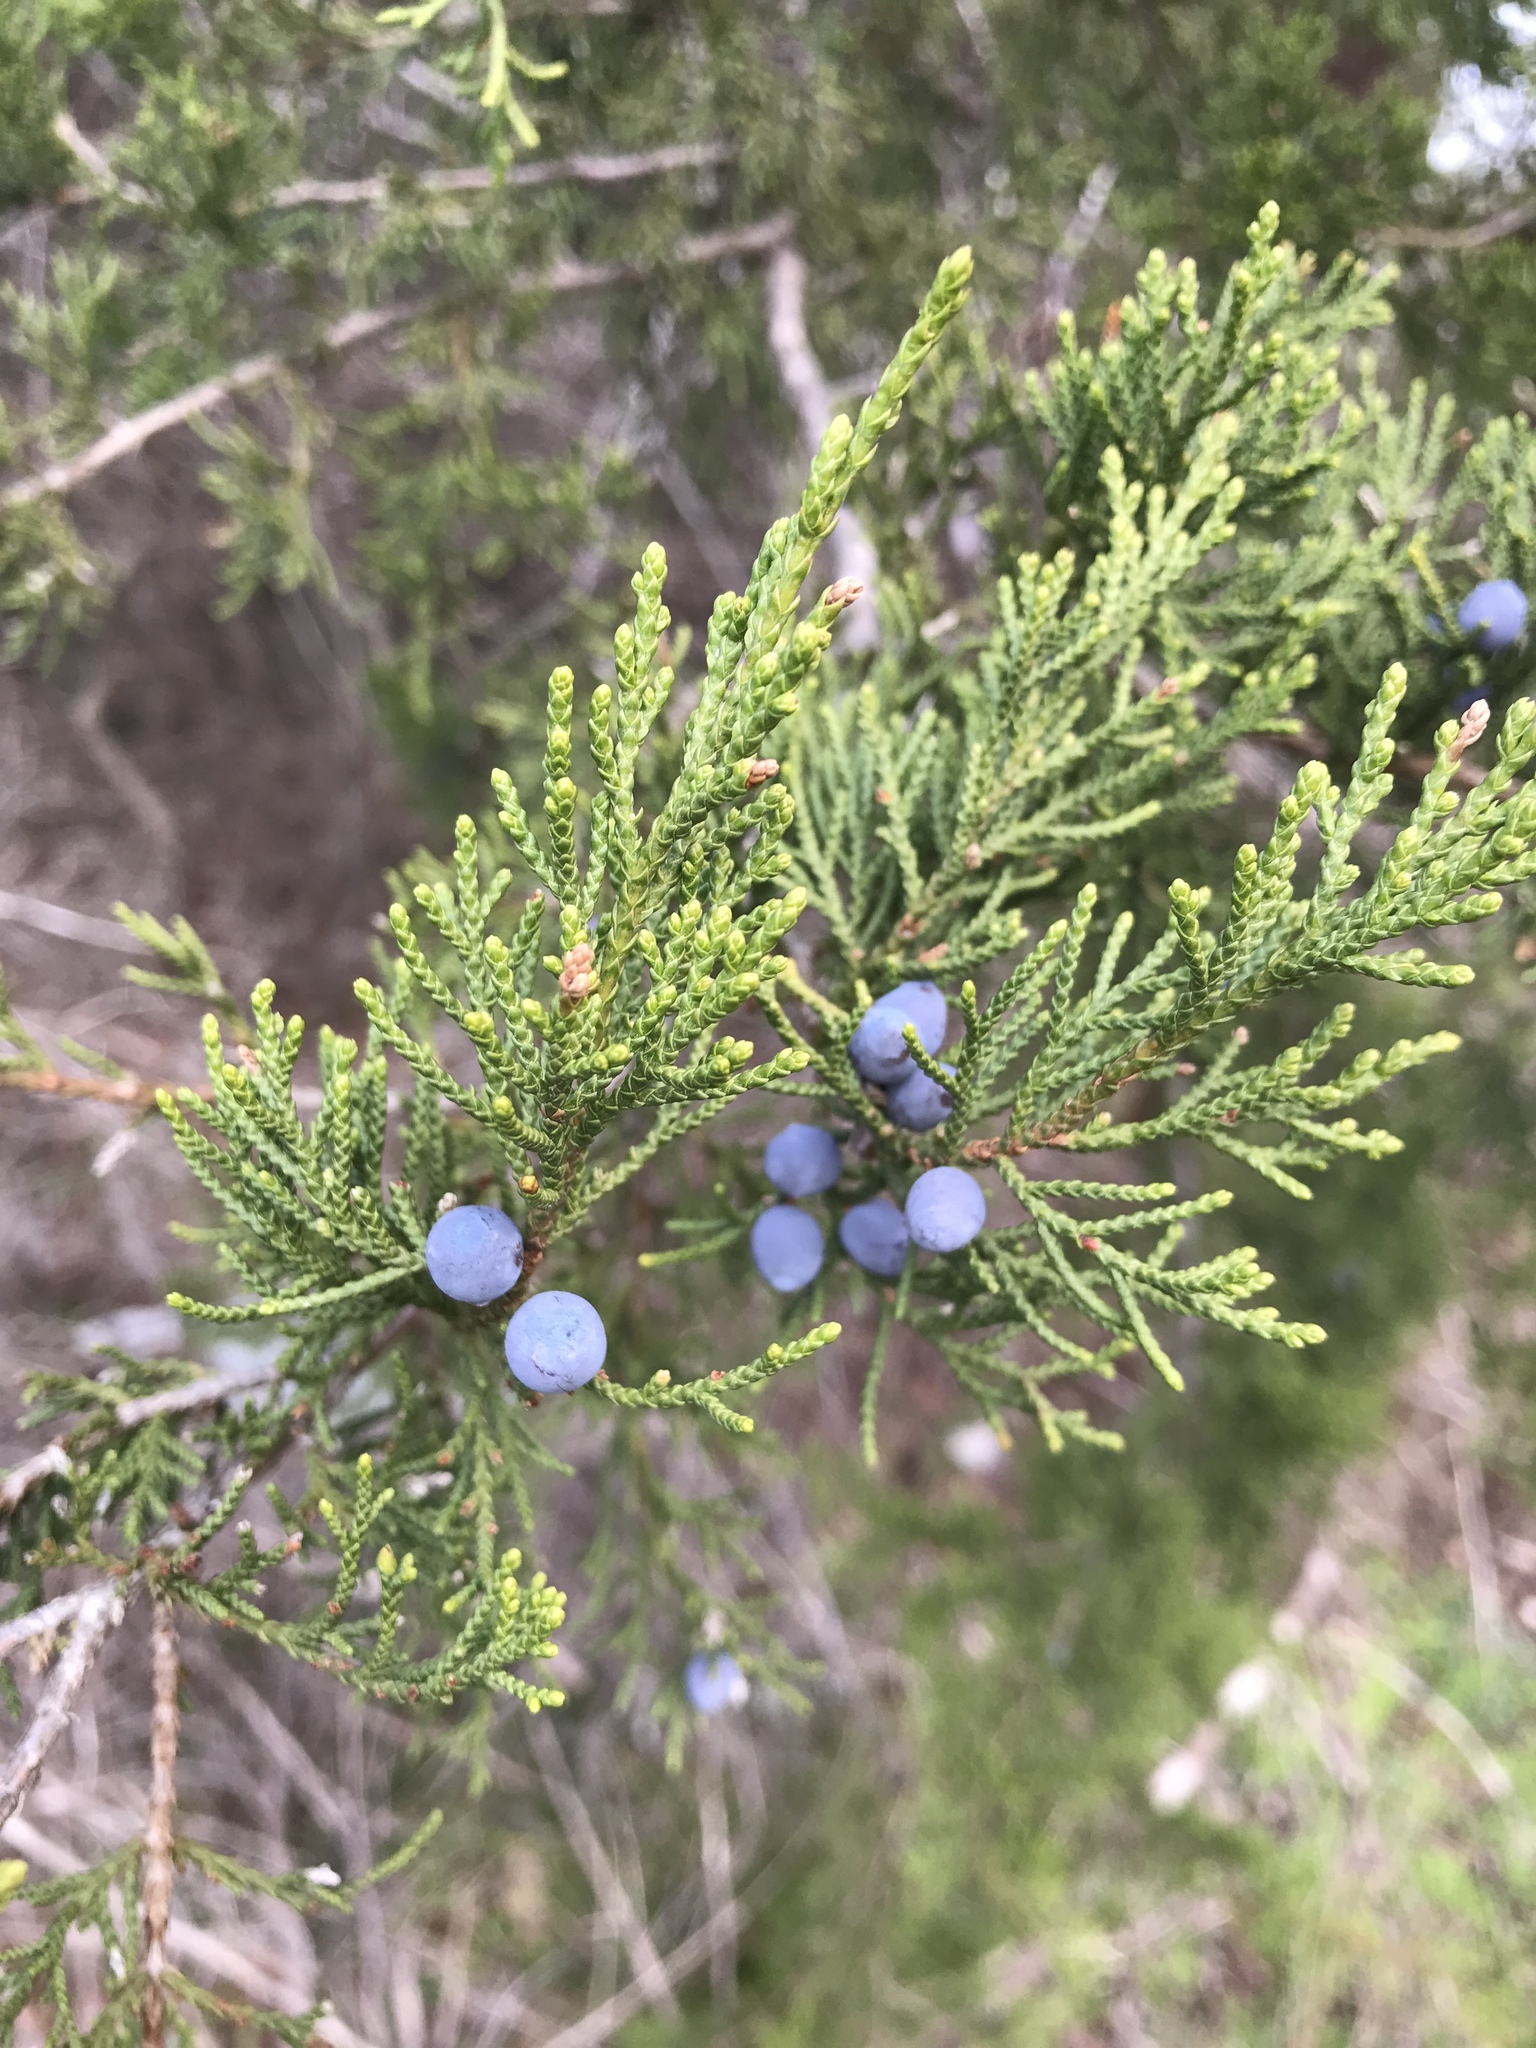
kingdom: Plantae
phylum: Tracheophyta
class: Pinopsida
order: Pinales
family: Cupressaceae
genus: Juniperus
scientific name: Juniperus ashei
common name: Mexican juniper
